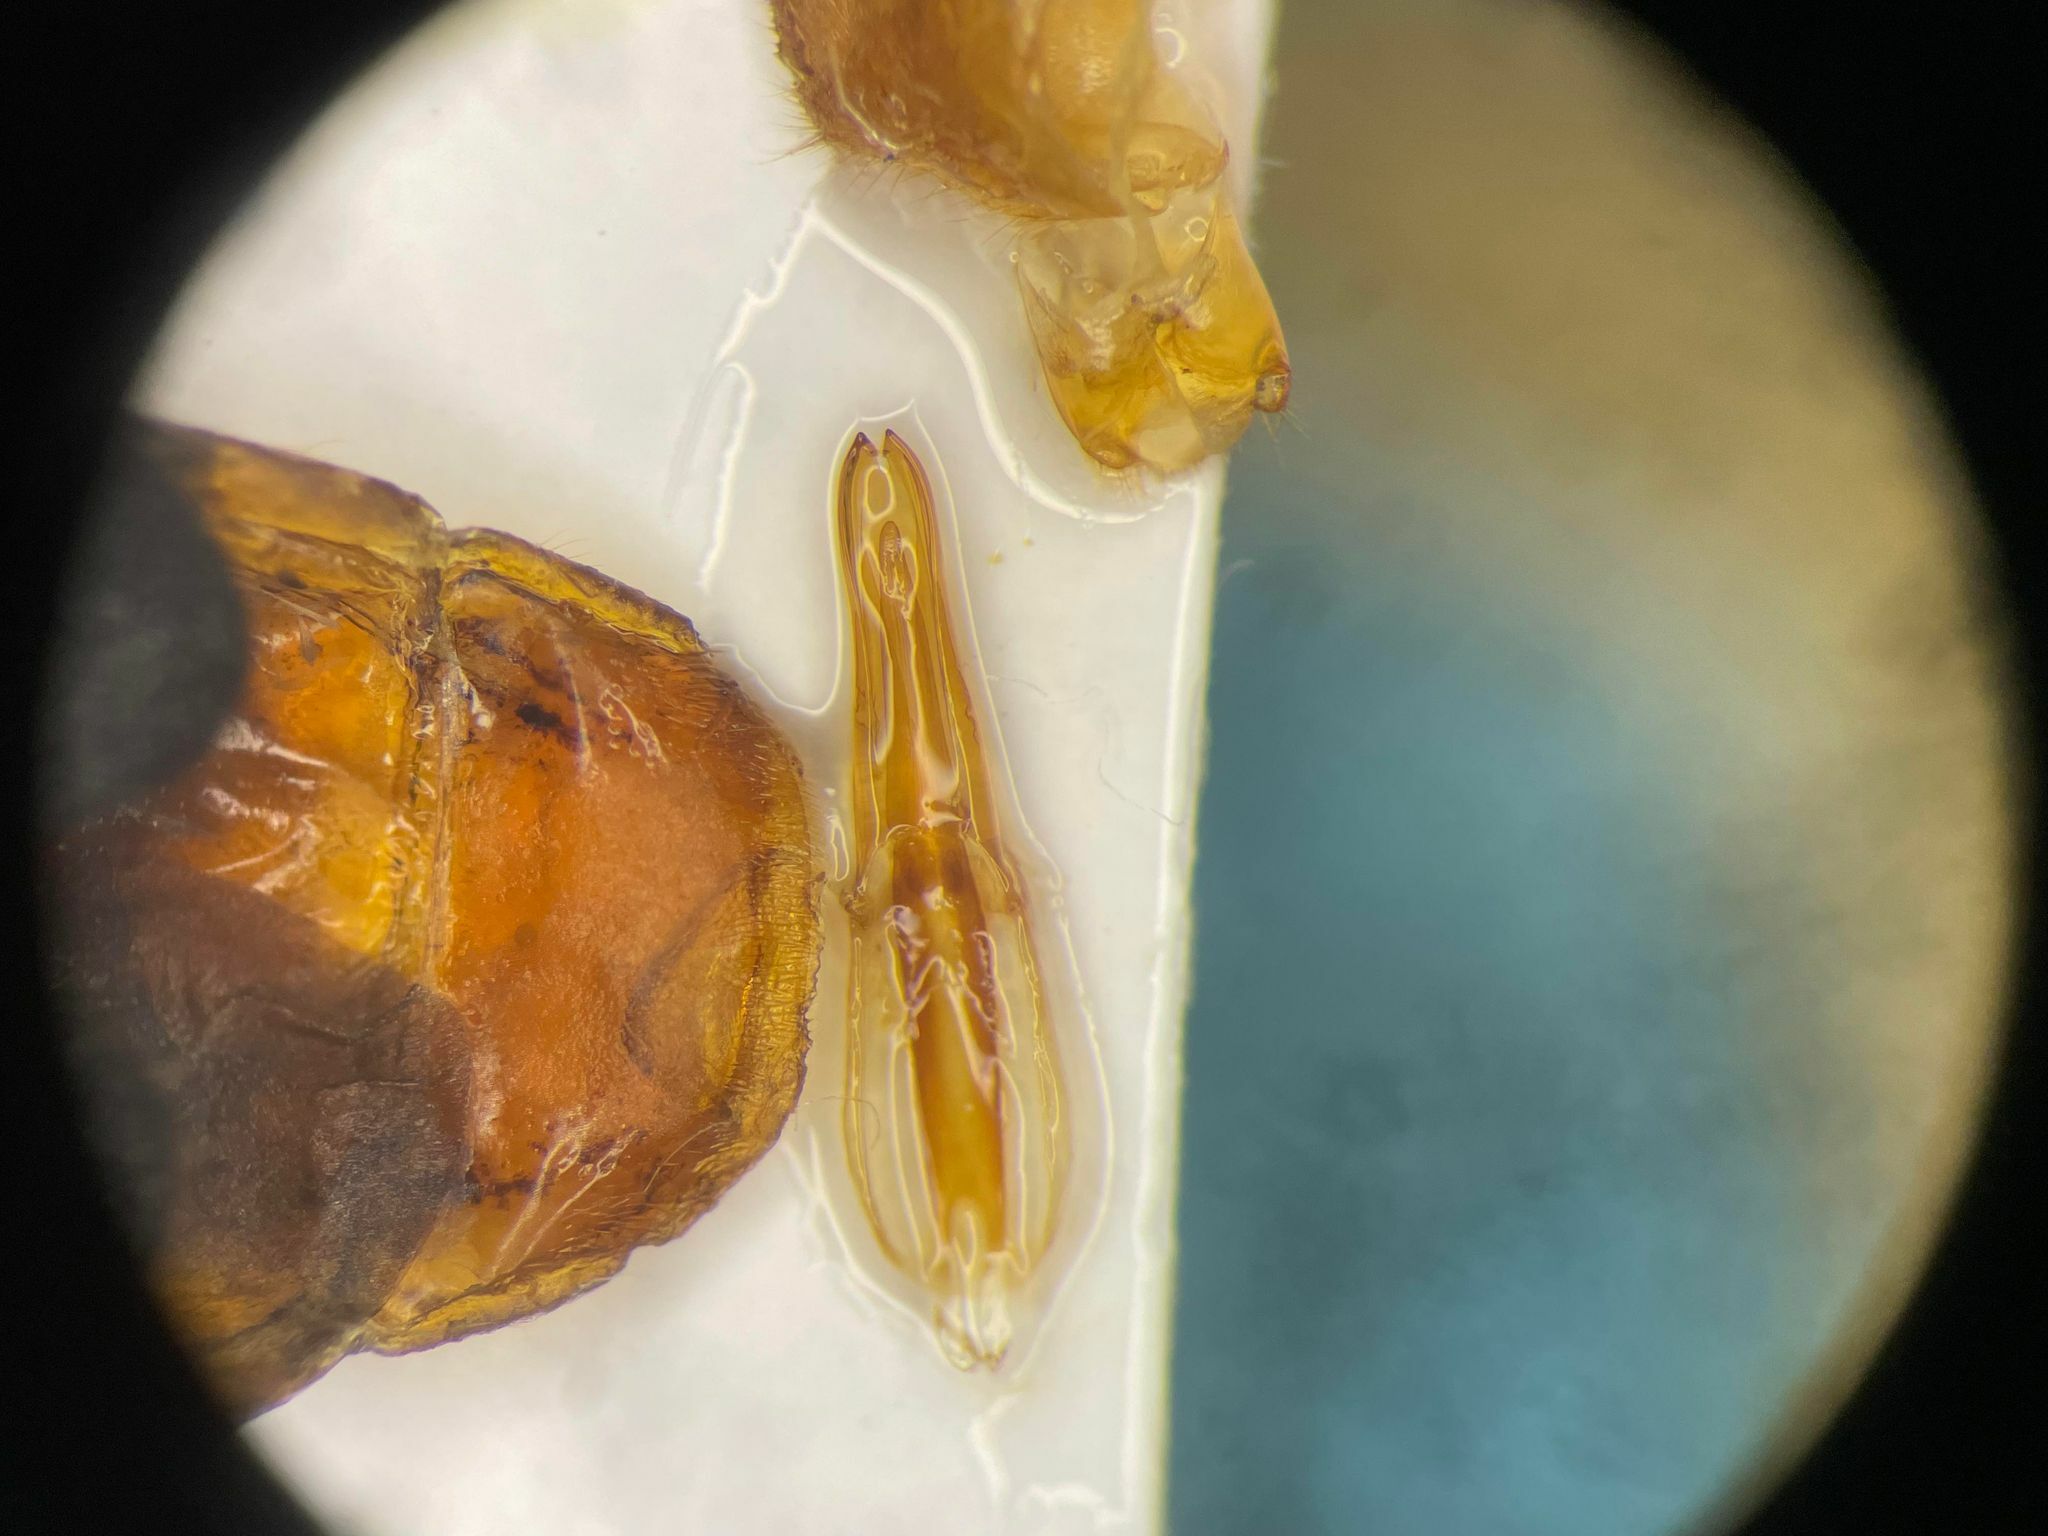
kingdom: Animalia
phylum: Arthropoda
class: Insecta
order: Coleoptera
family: Pyrochroidae
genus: Neopyrochroa
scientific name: Neopyrochroa flabellata
